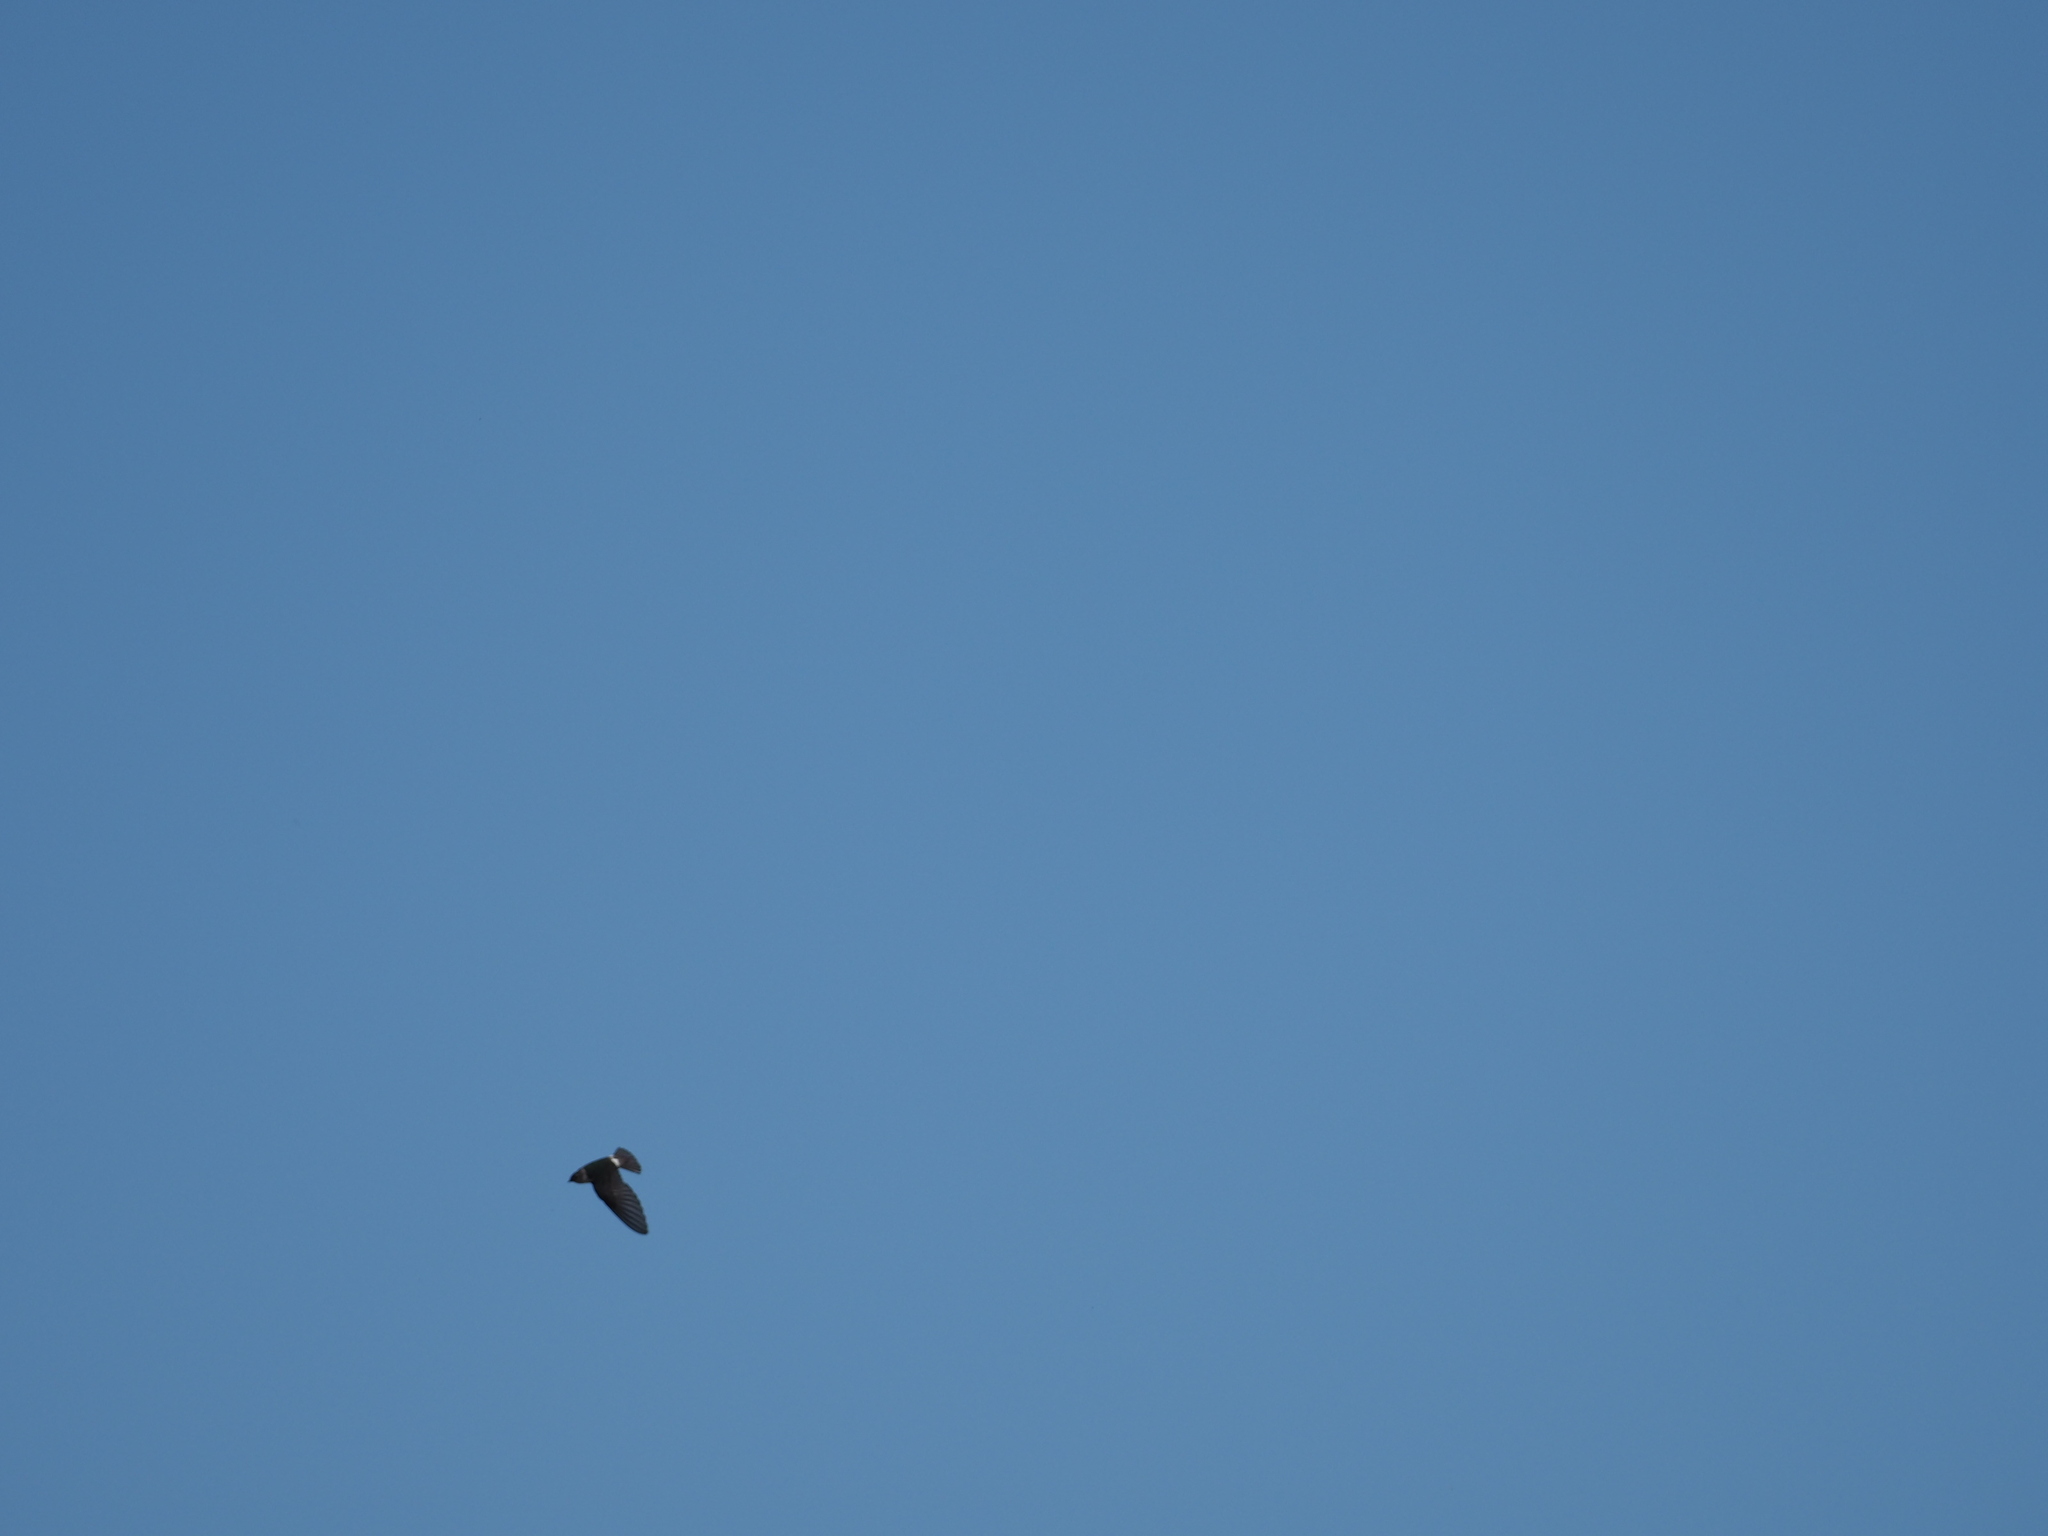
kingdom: Animalia
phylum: Chordata
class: Aves
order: Passeriformes
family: Hirundinidae
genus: Tachycineta
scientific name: Tachycineta thalassina
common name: Violet-green swallow
